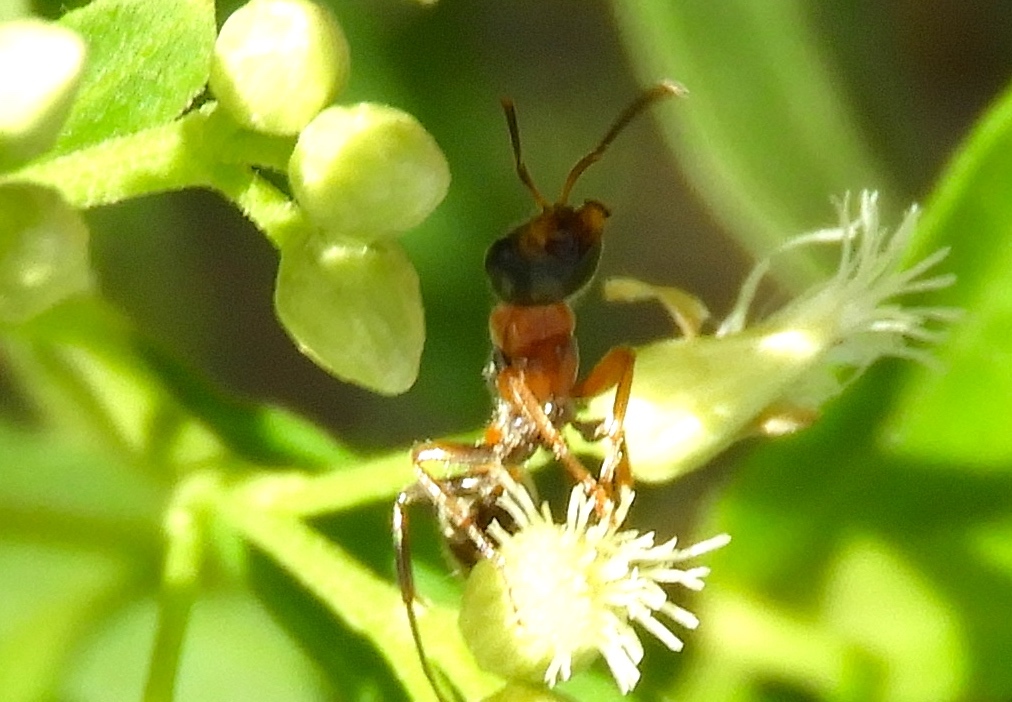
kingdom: Animalia
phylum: Arthropoda
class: Insecta
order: Hymenoptera
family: Formicidae
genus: Pseudomyrmex
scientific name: Pseudomyrmex gracilis
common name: Graceful twig ant
